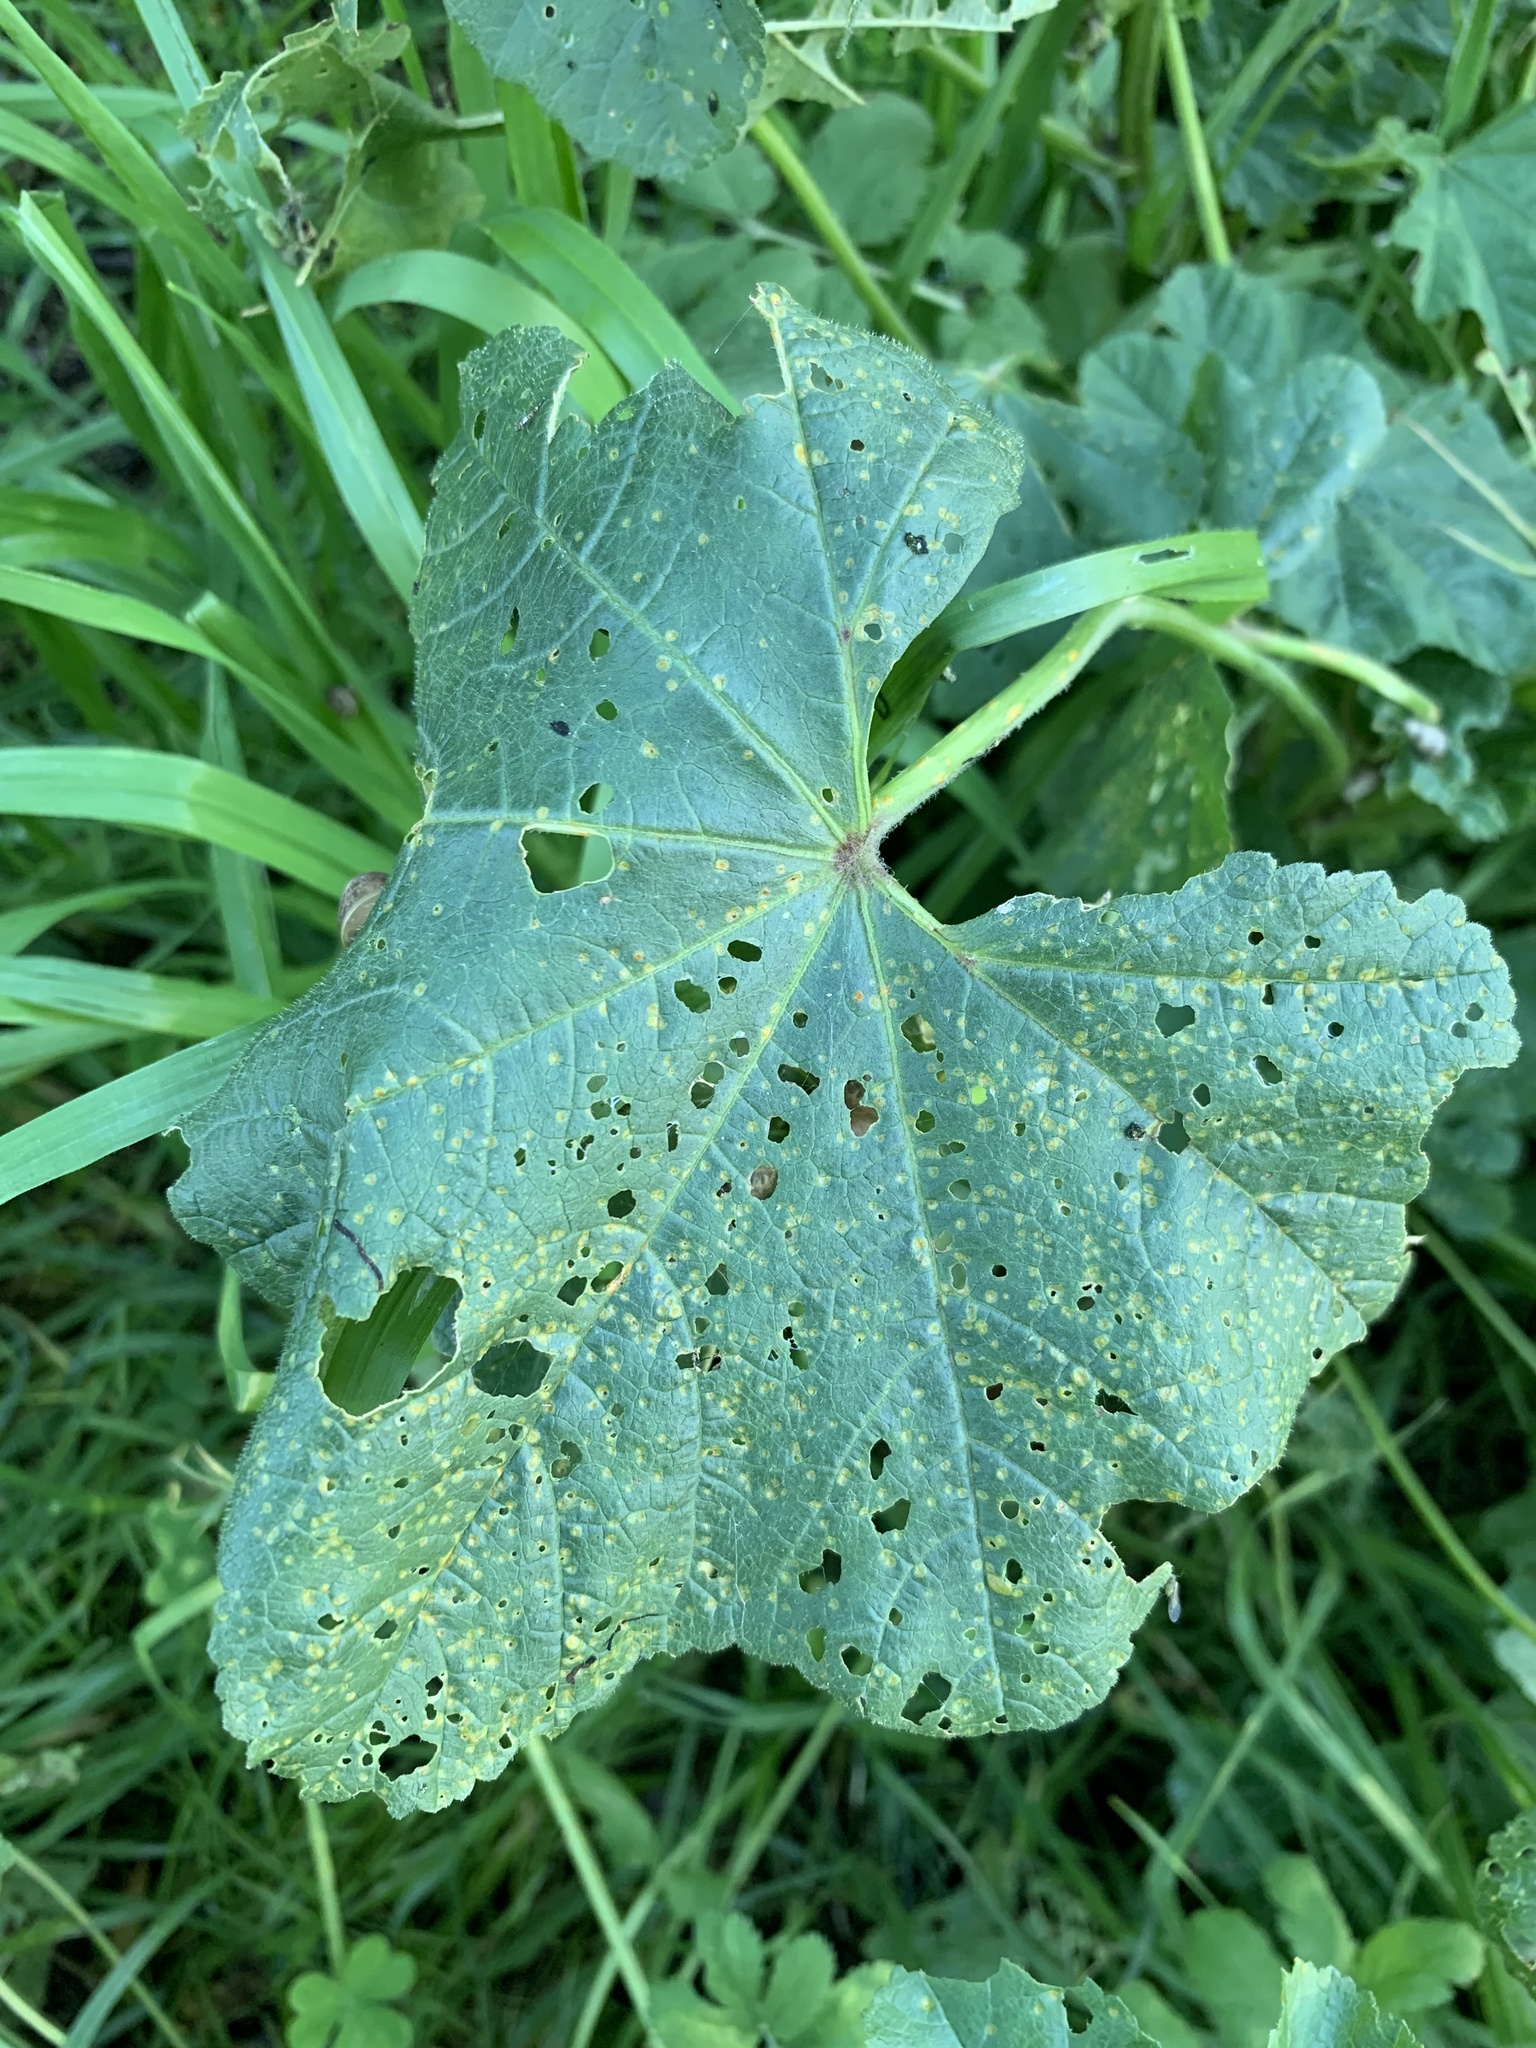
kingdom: Plantae
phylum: Tracheophyta
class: Magnoliopsida
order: Malvales
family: Malvaceae
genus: Malva
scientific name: Malva parviflora
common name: Least mallow
